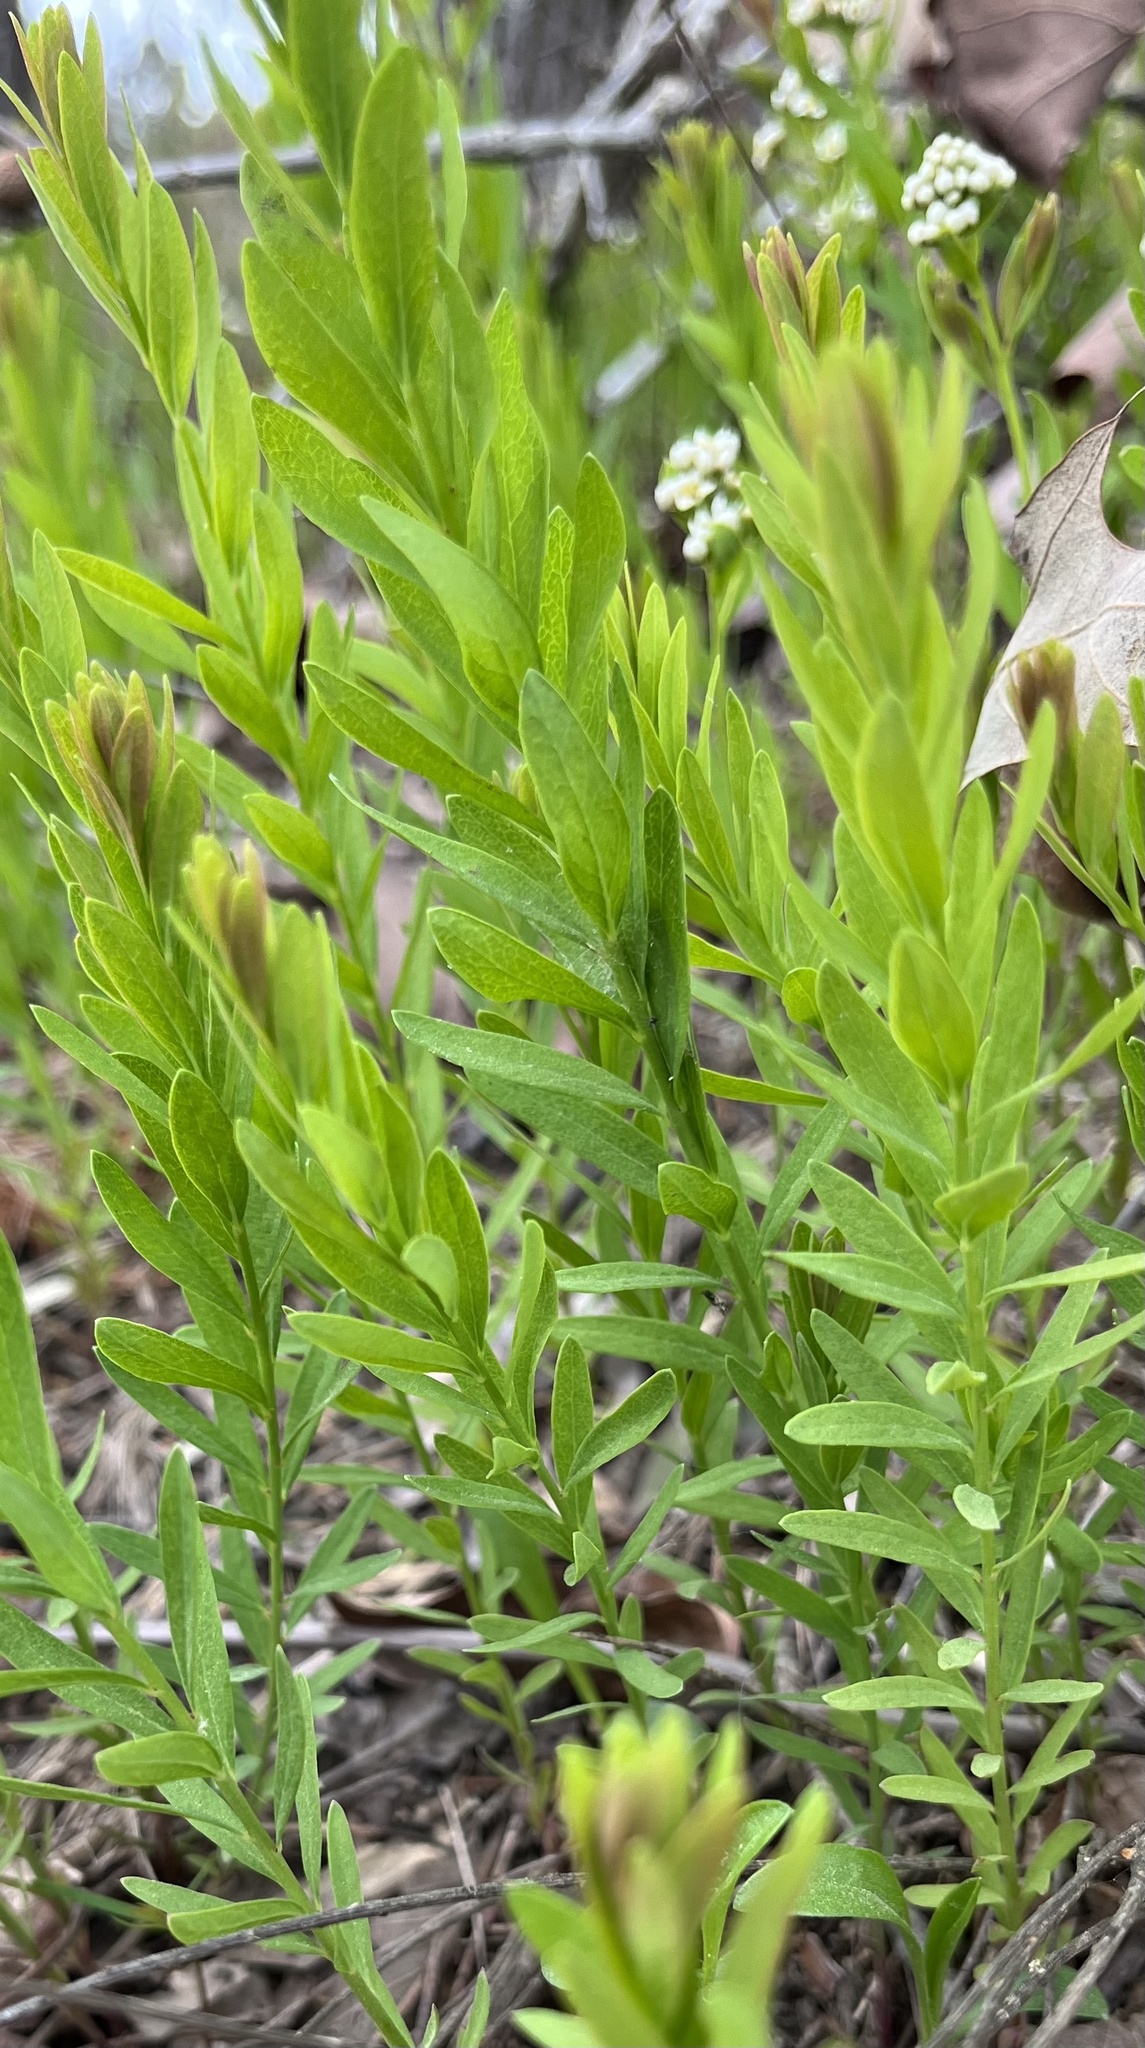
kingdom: Plantae
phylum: Tracheophyta
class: Magnoliopsida
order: Santalales
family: Comandraceae
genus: Comandra
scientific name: Comandra umbellata
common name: Bastard toadflax
